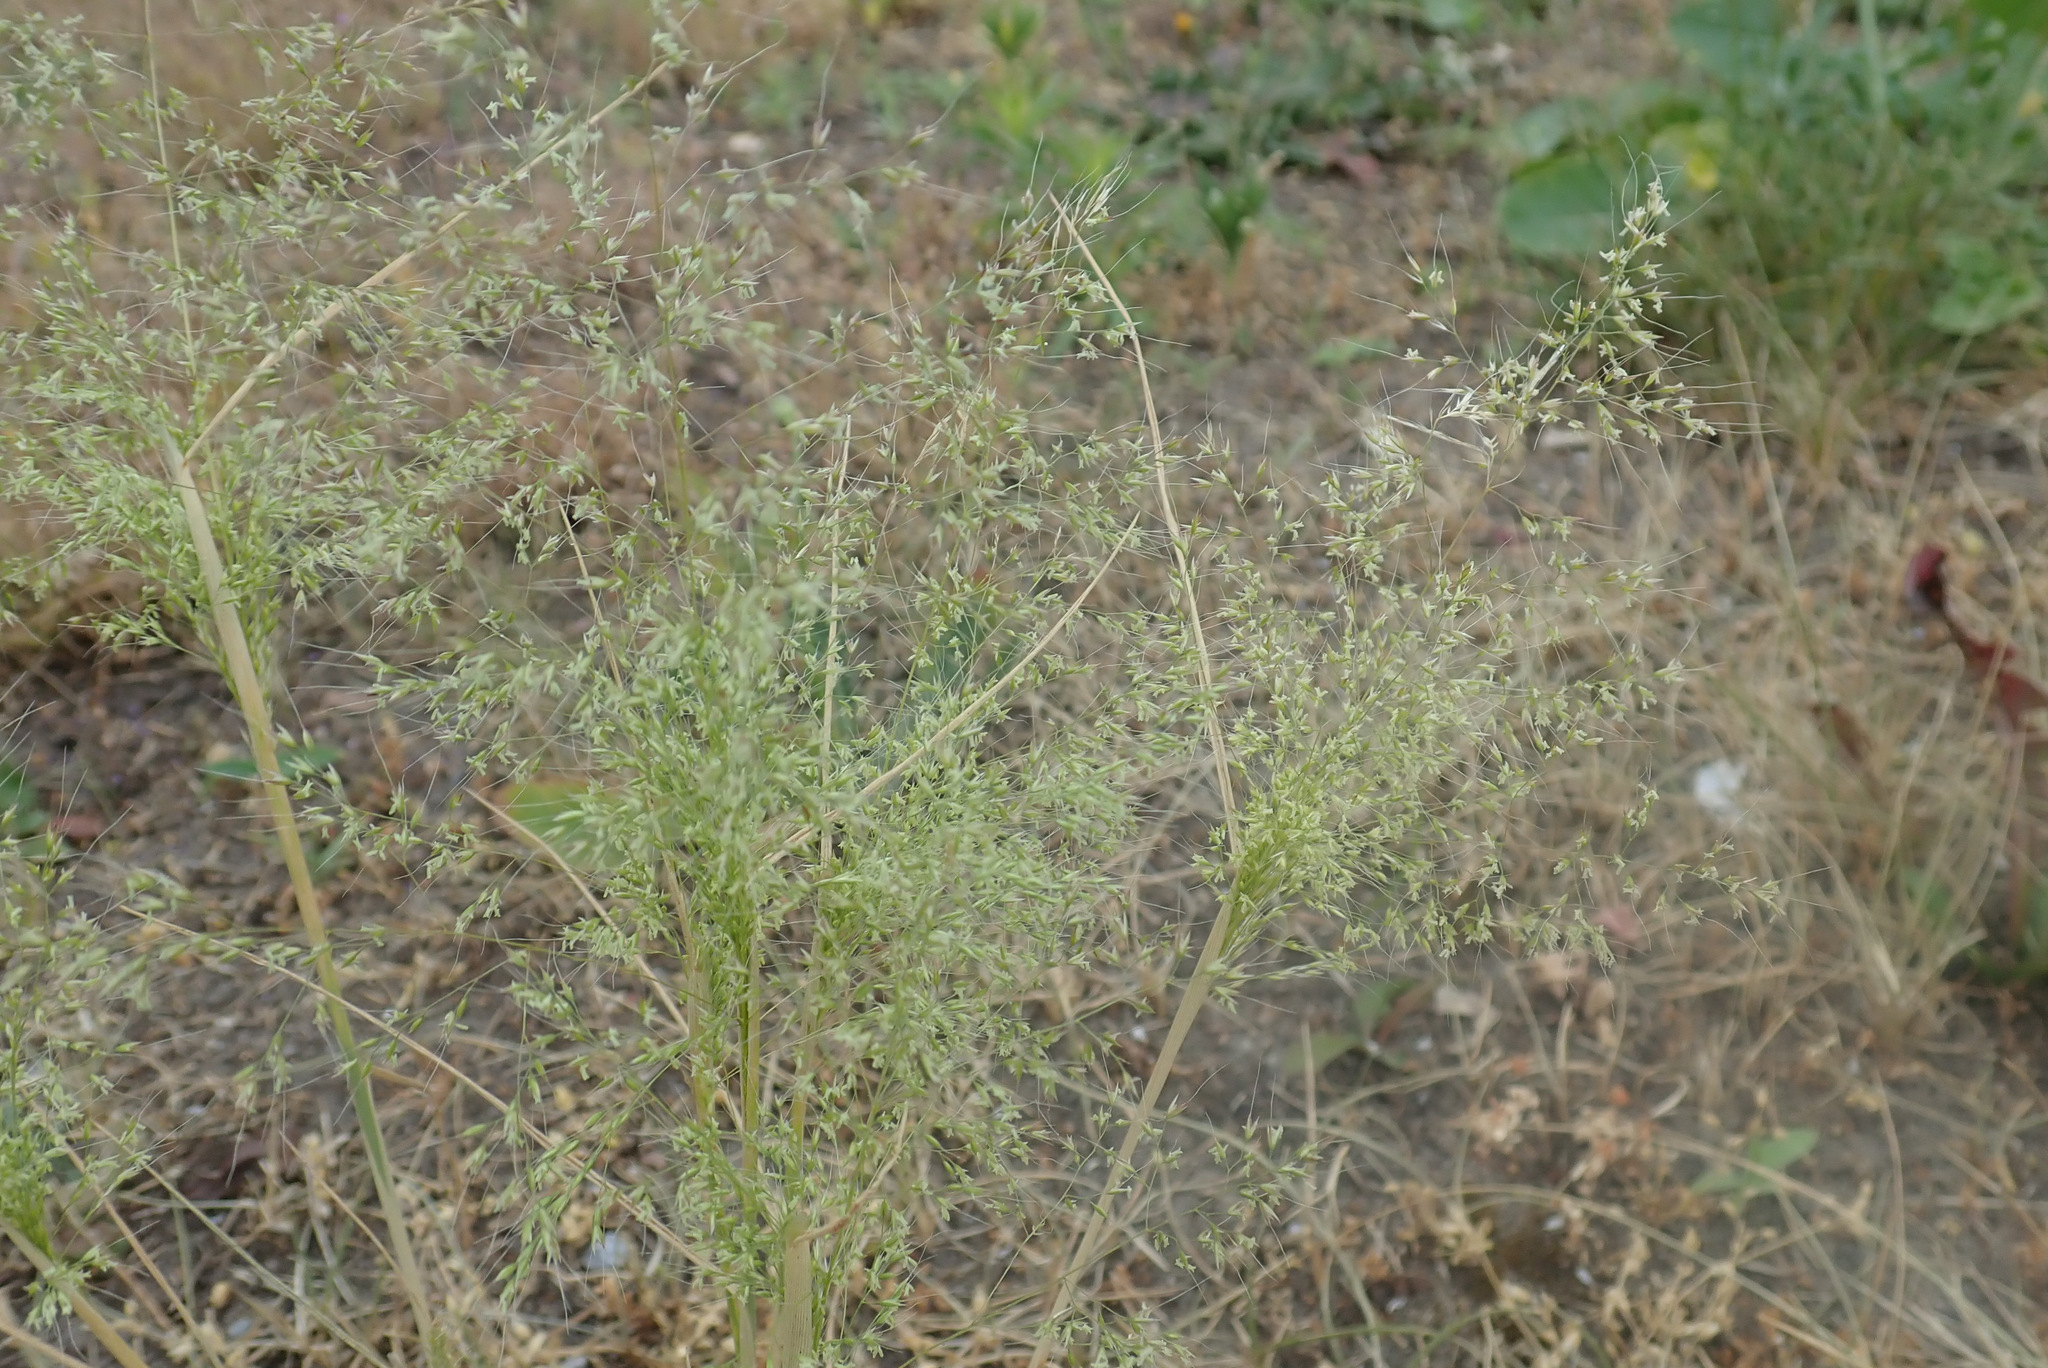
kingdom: Plantae
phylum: Tracheophyta
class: Liliopsida
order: Poales
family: Poaceae
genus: Apera
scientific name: Apera spica-venti
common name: Loose silky-bent
